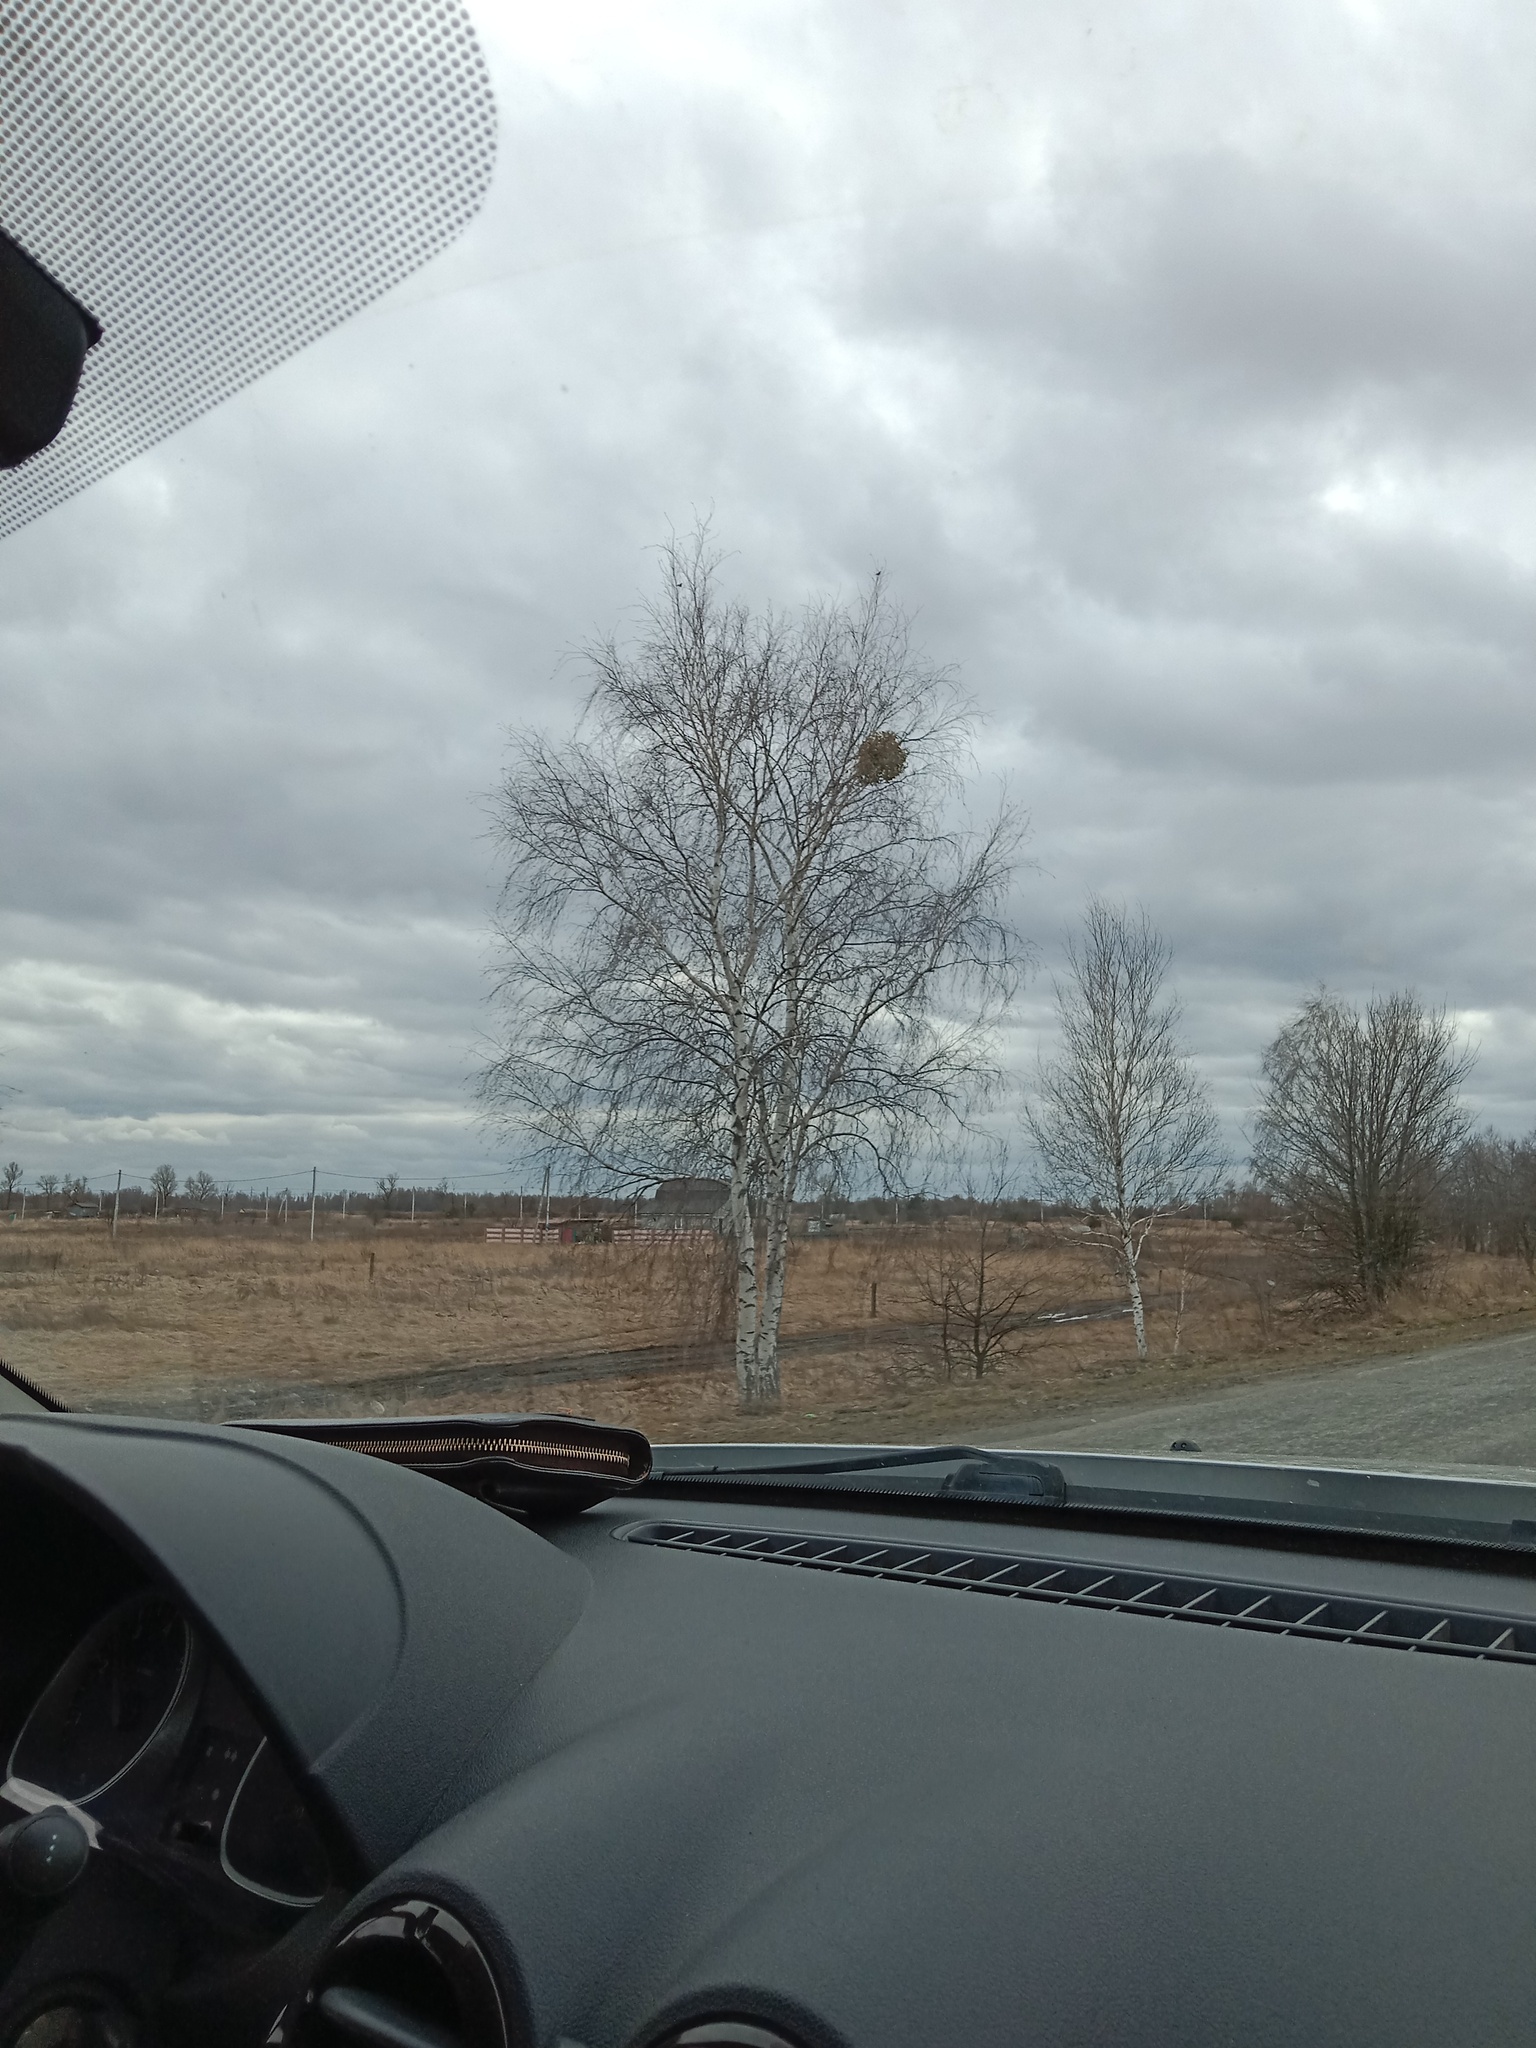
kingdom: Plantae
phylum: Tracheophyta
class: Magnoliopsida
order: Santalales
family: Viscaceae
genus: Viscum
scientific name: Viscum album
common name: Mistletoe
